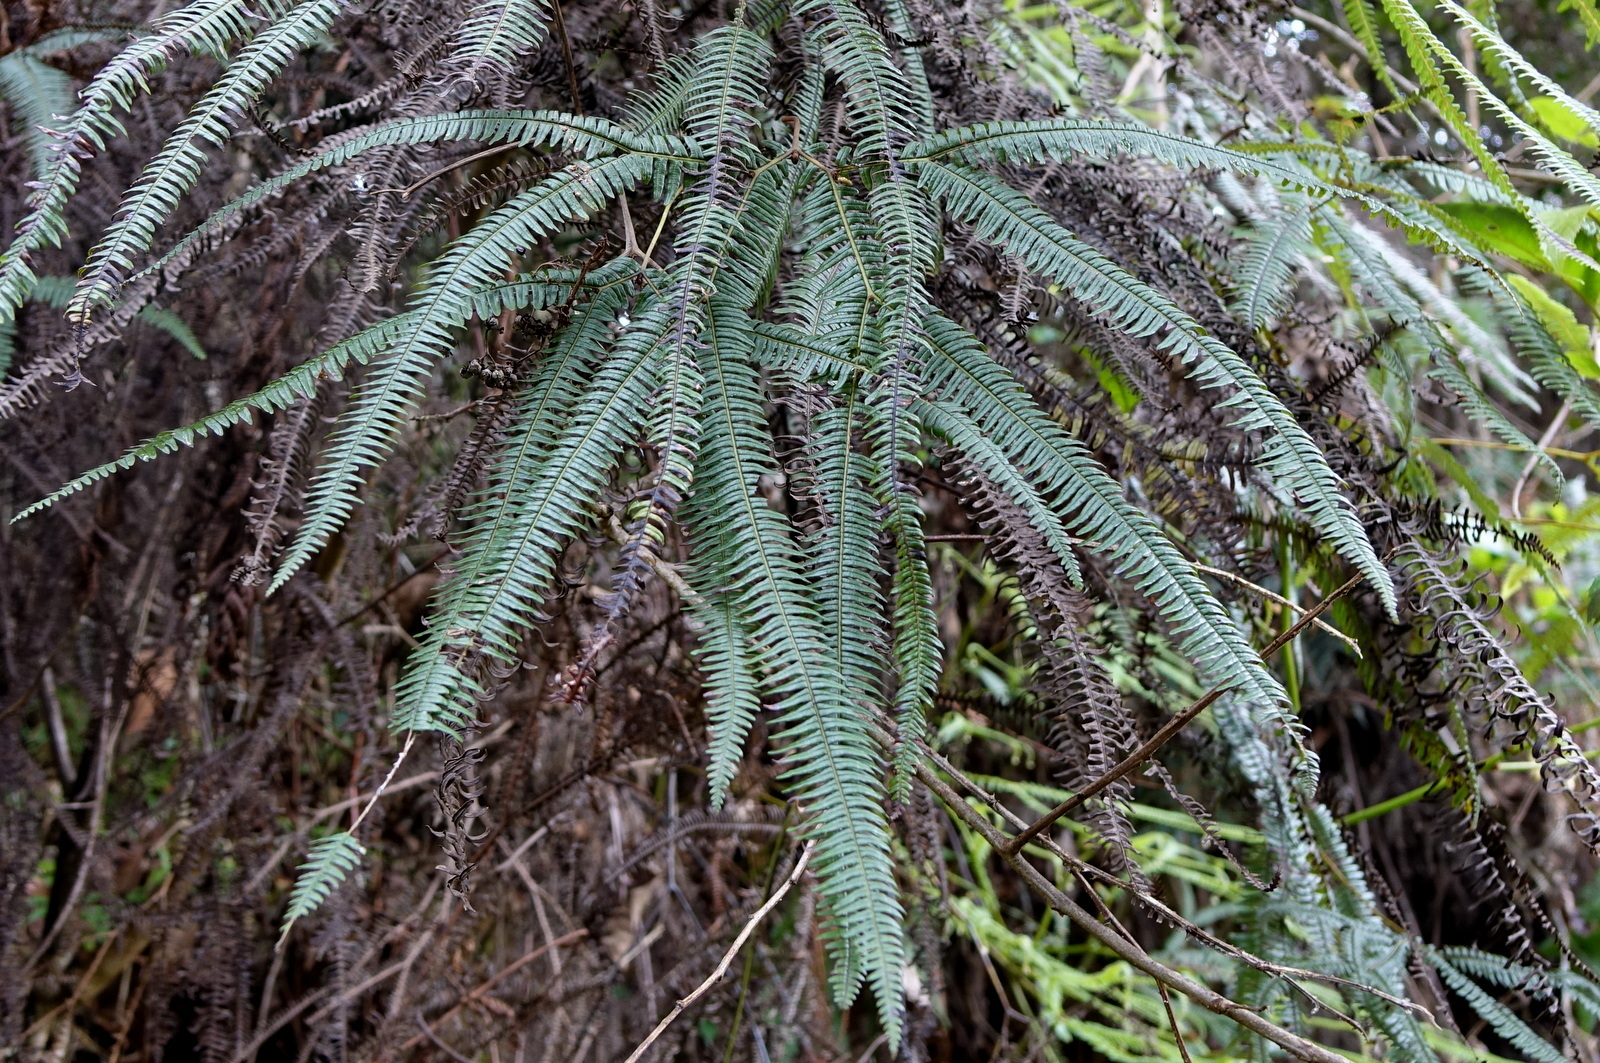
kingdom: Plantae
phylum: Tracheophyta
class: Polypodiopsida
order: Gleicheniales
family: Gleicheniaceae
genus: Sticherus
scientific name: Sticherus flagellaris
